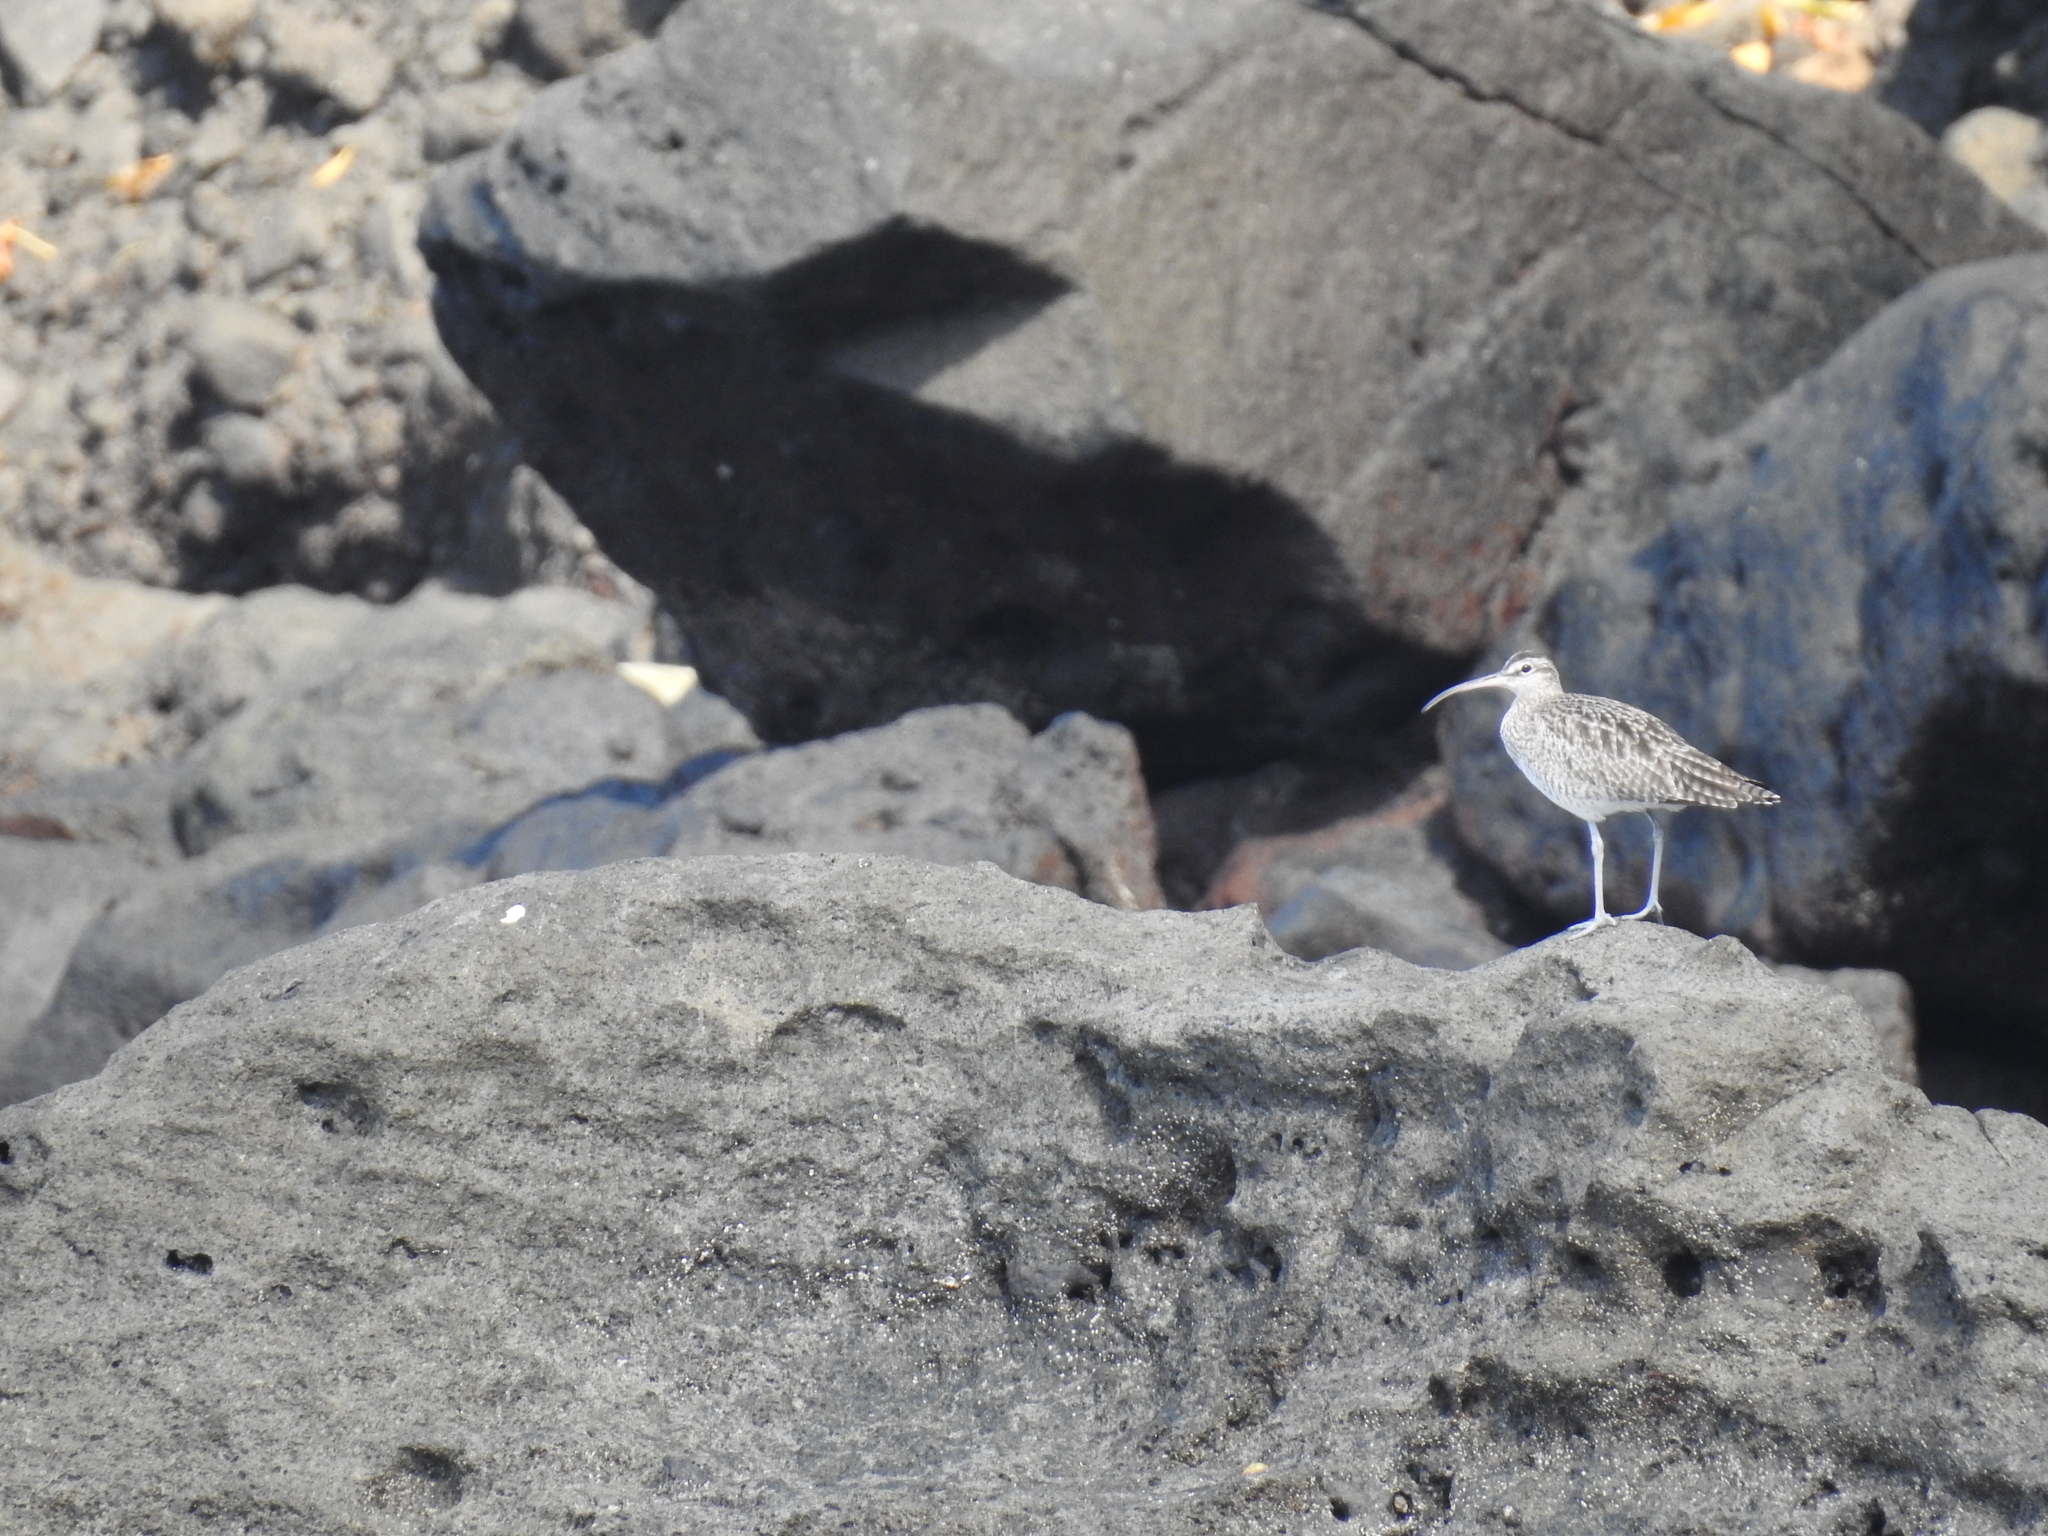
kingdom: Animalia
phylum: Chordata
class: Aves
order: Charadriiformes
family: Scolopacidae
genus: Numenius
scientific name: Numenius phaeopus
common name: Whimbrel
